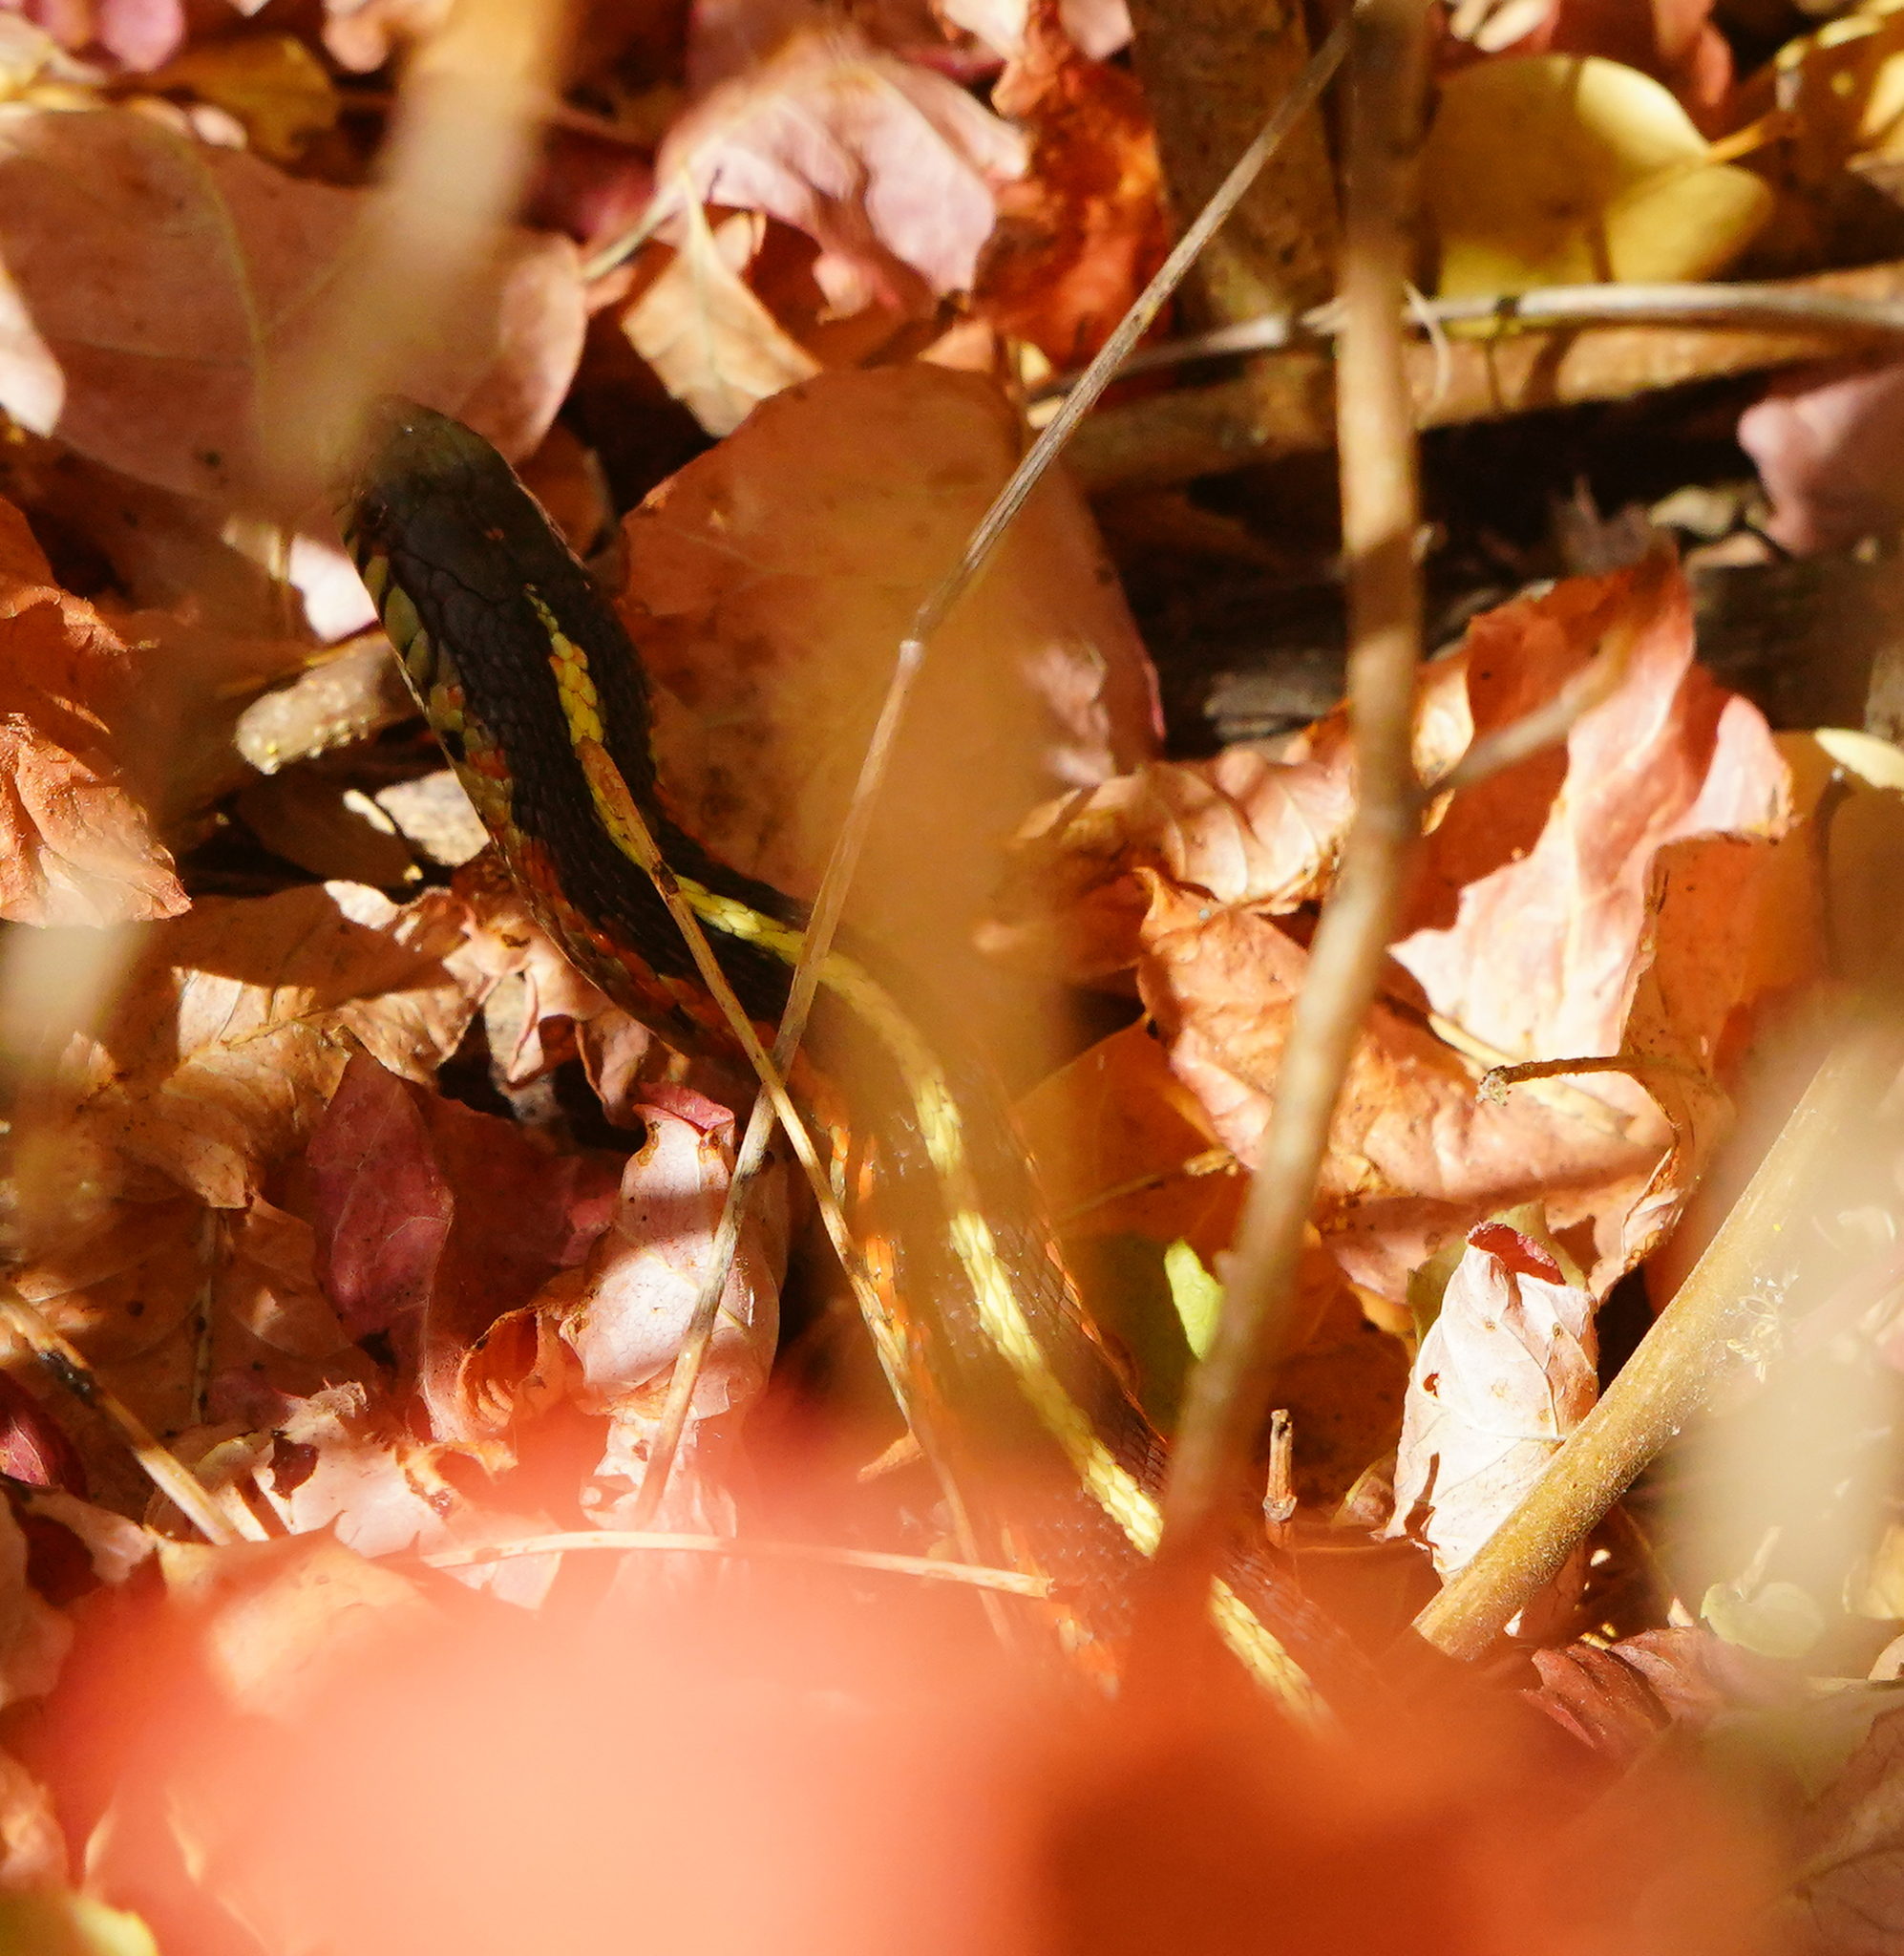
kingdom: Animalia
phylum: Chordata
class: Squamata
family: Colubridae
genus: Thamnophis
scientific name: Thamnophis elegans
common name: Western terrestrial garter snake
